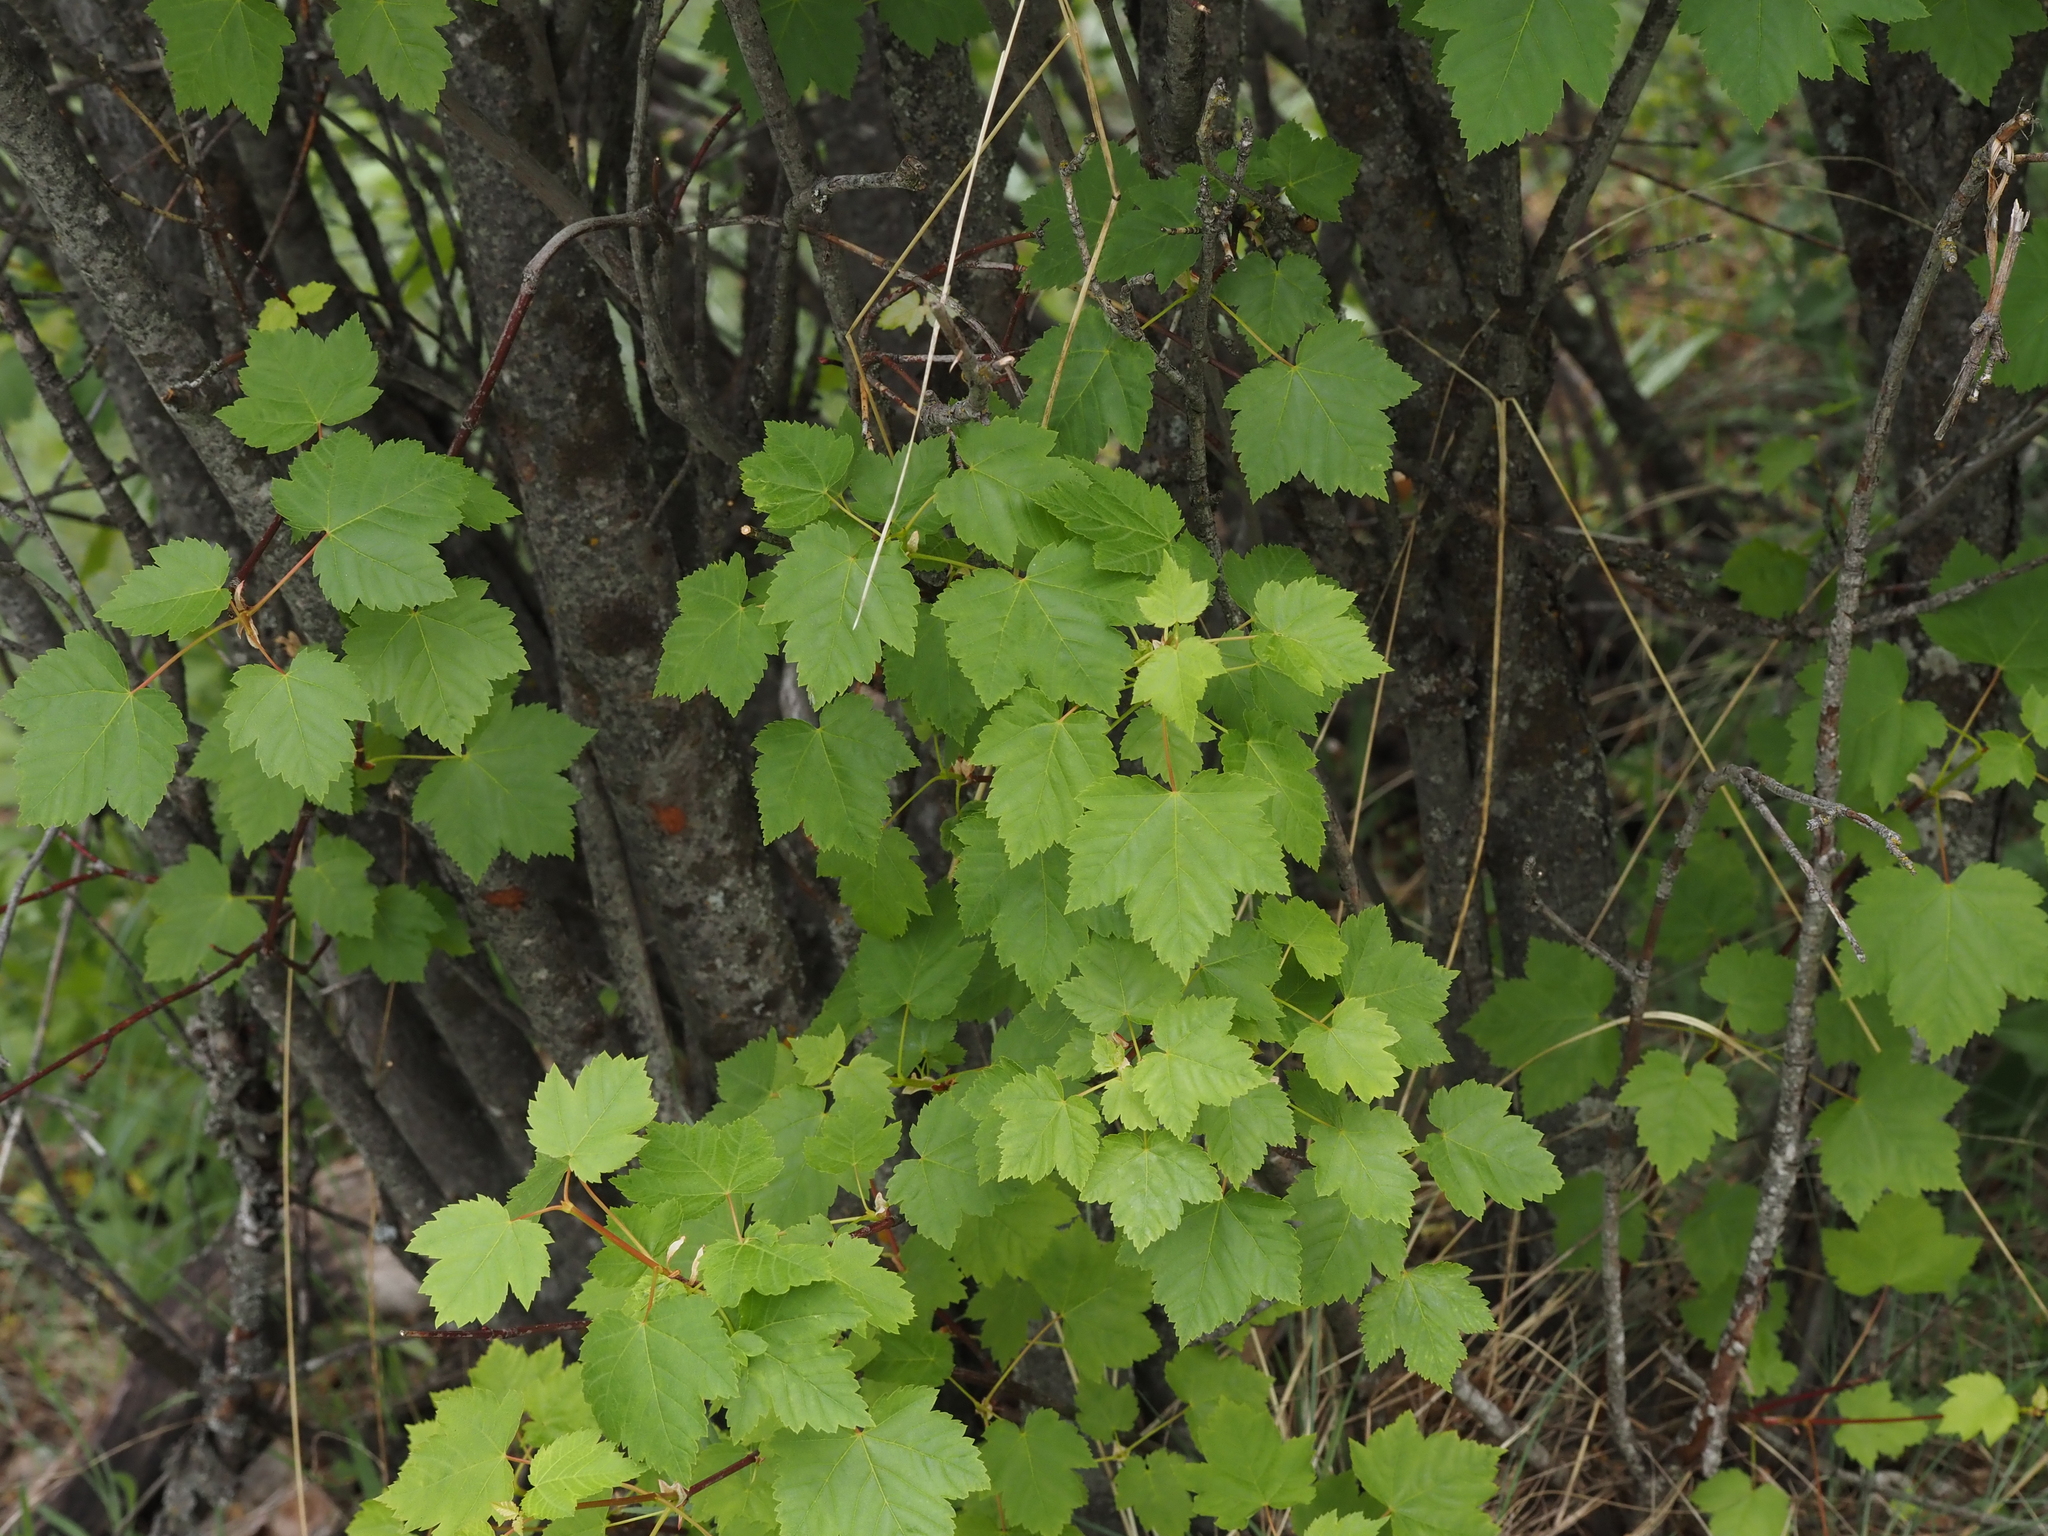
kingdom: Plantae
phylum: Tracheophyta
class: Magnoliopsida
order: Sapindales
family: Sapindaceae
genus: Acer
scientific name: Acer glabrum
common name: Rocky mountain maple
